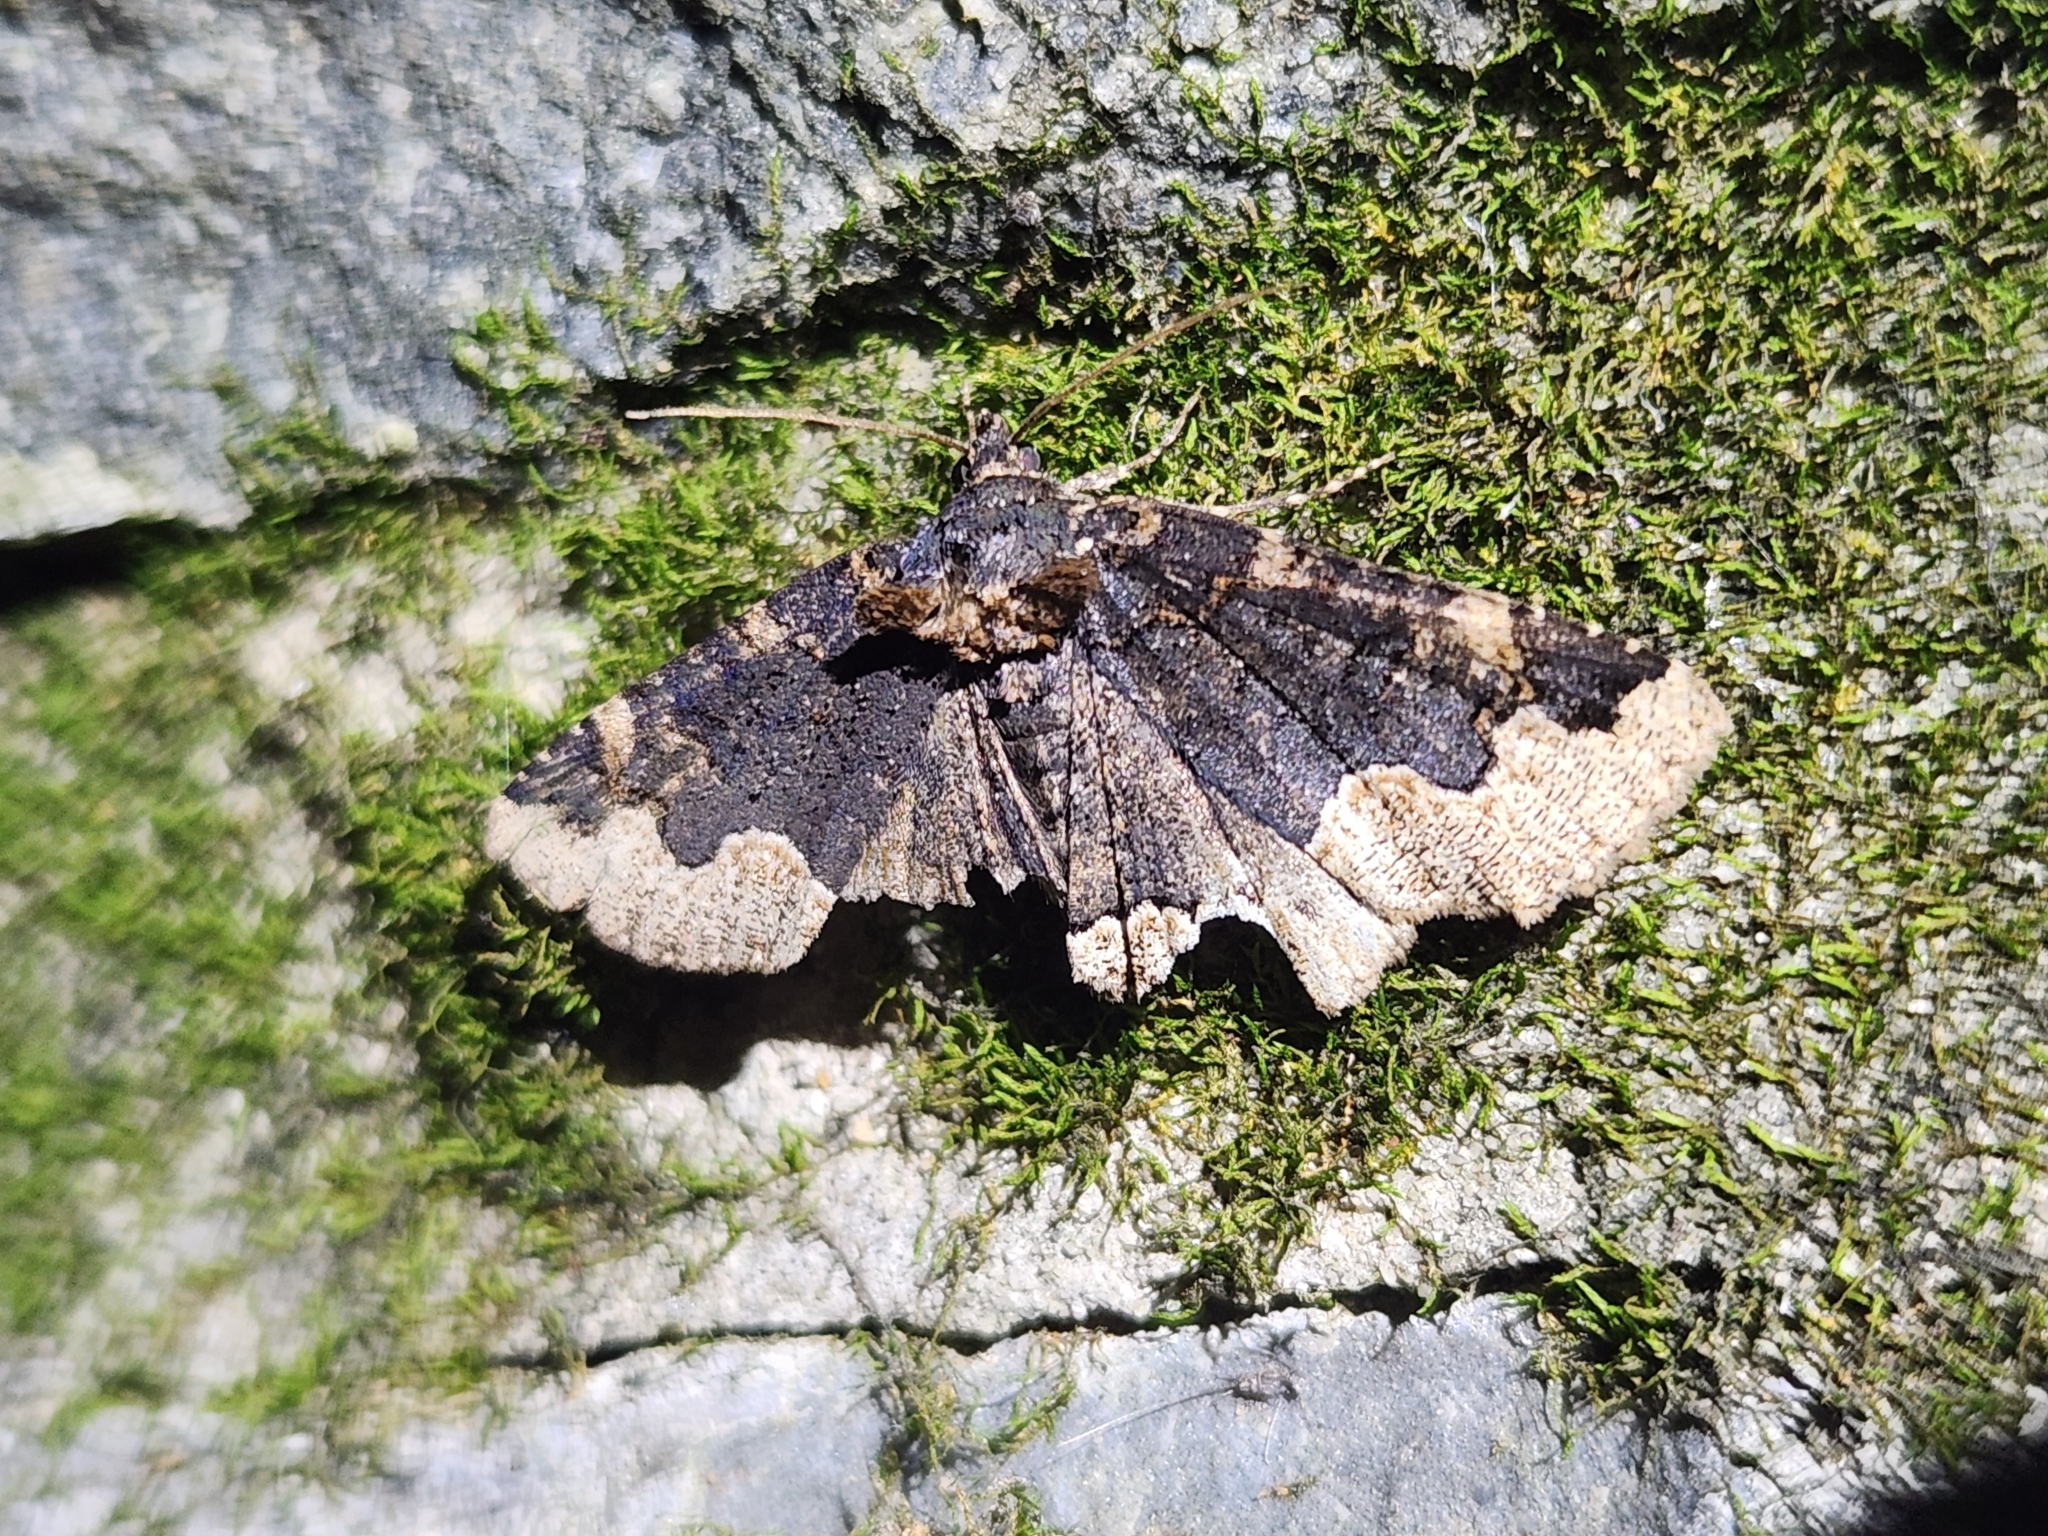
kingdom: Animalia
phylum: Arthropoda
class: Insecta
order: Lepidoptera
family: Erebidae
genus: Zale
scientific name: Zale horrida
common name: Horrid zale moth
